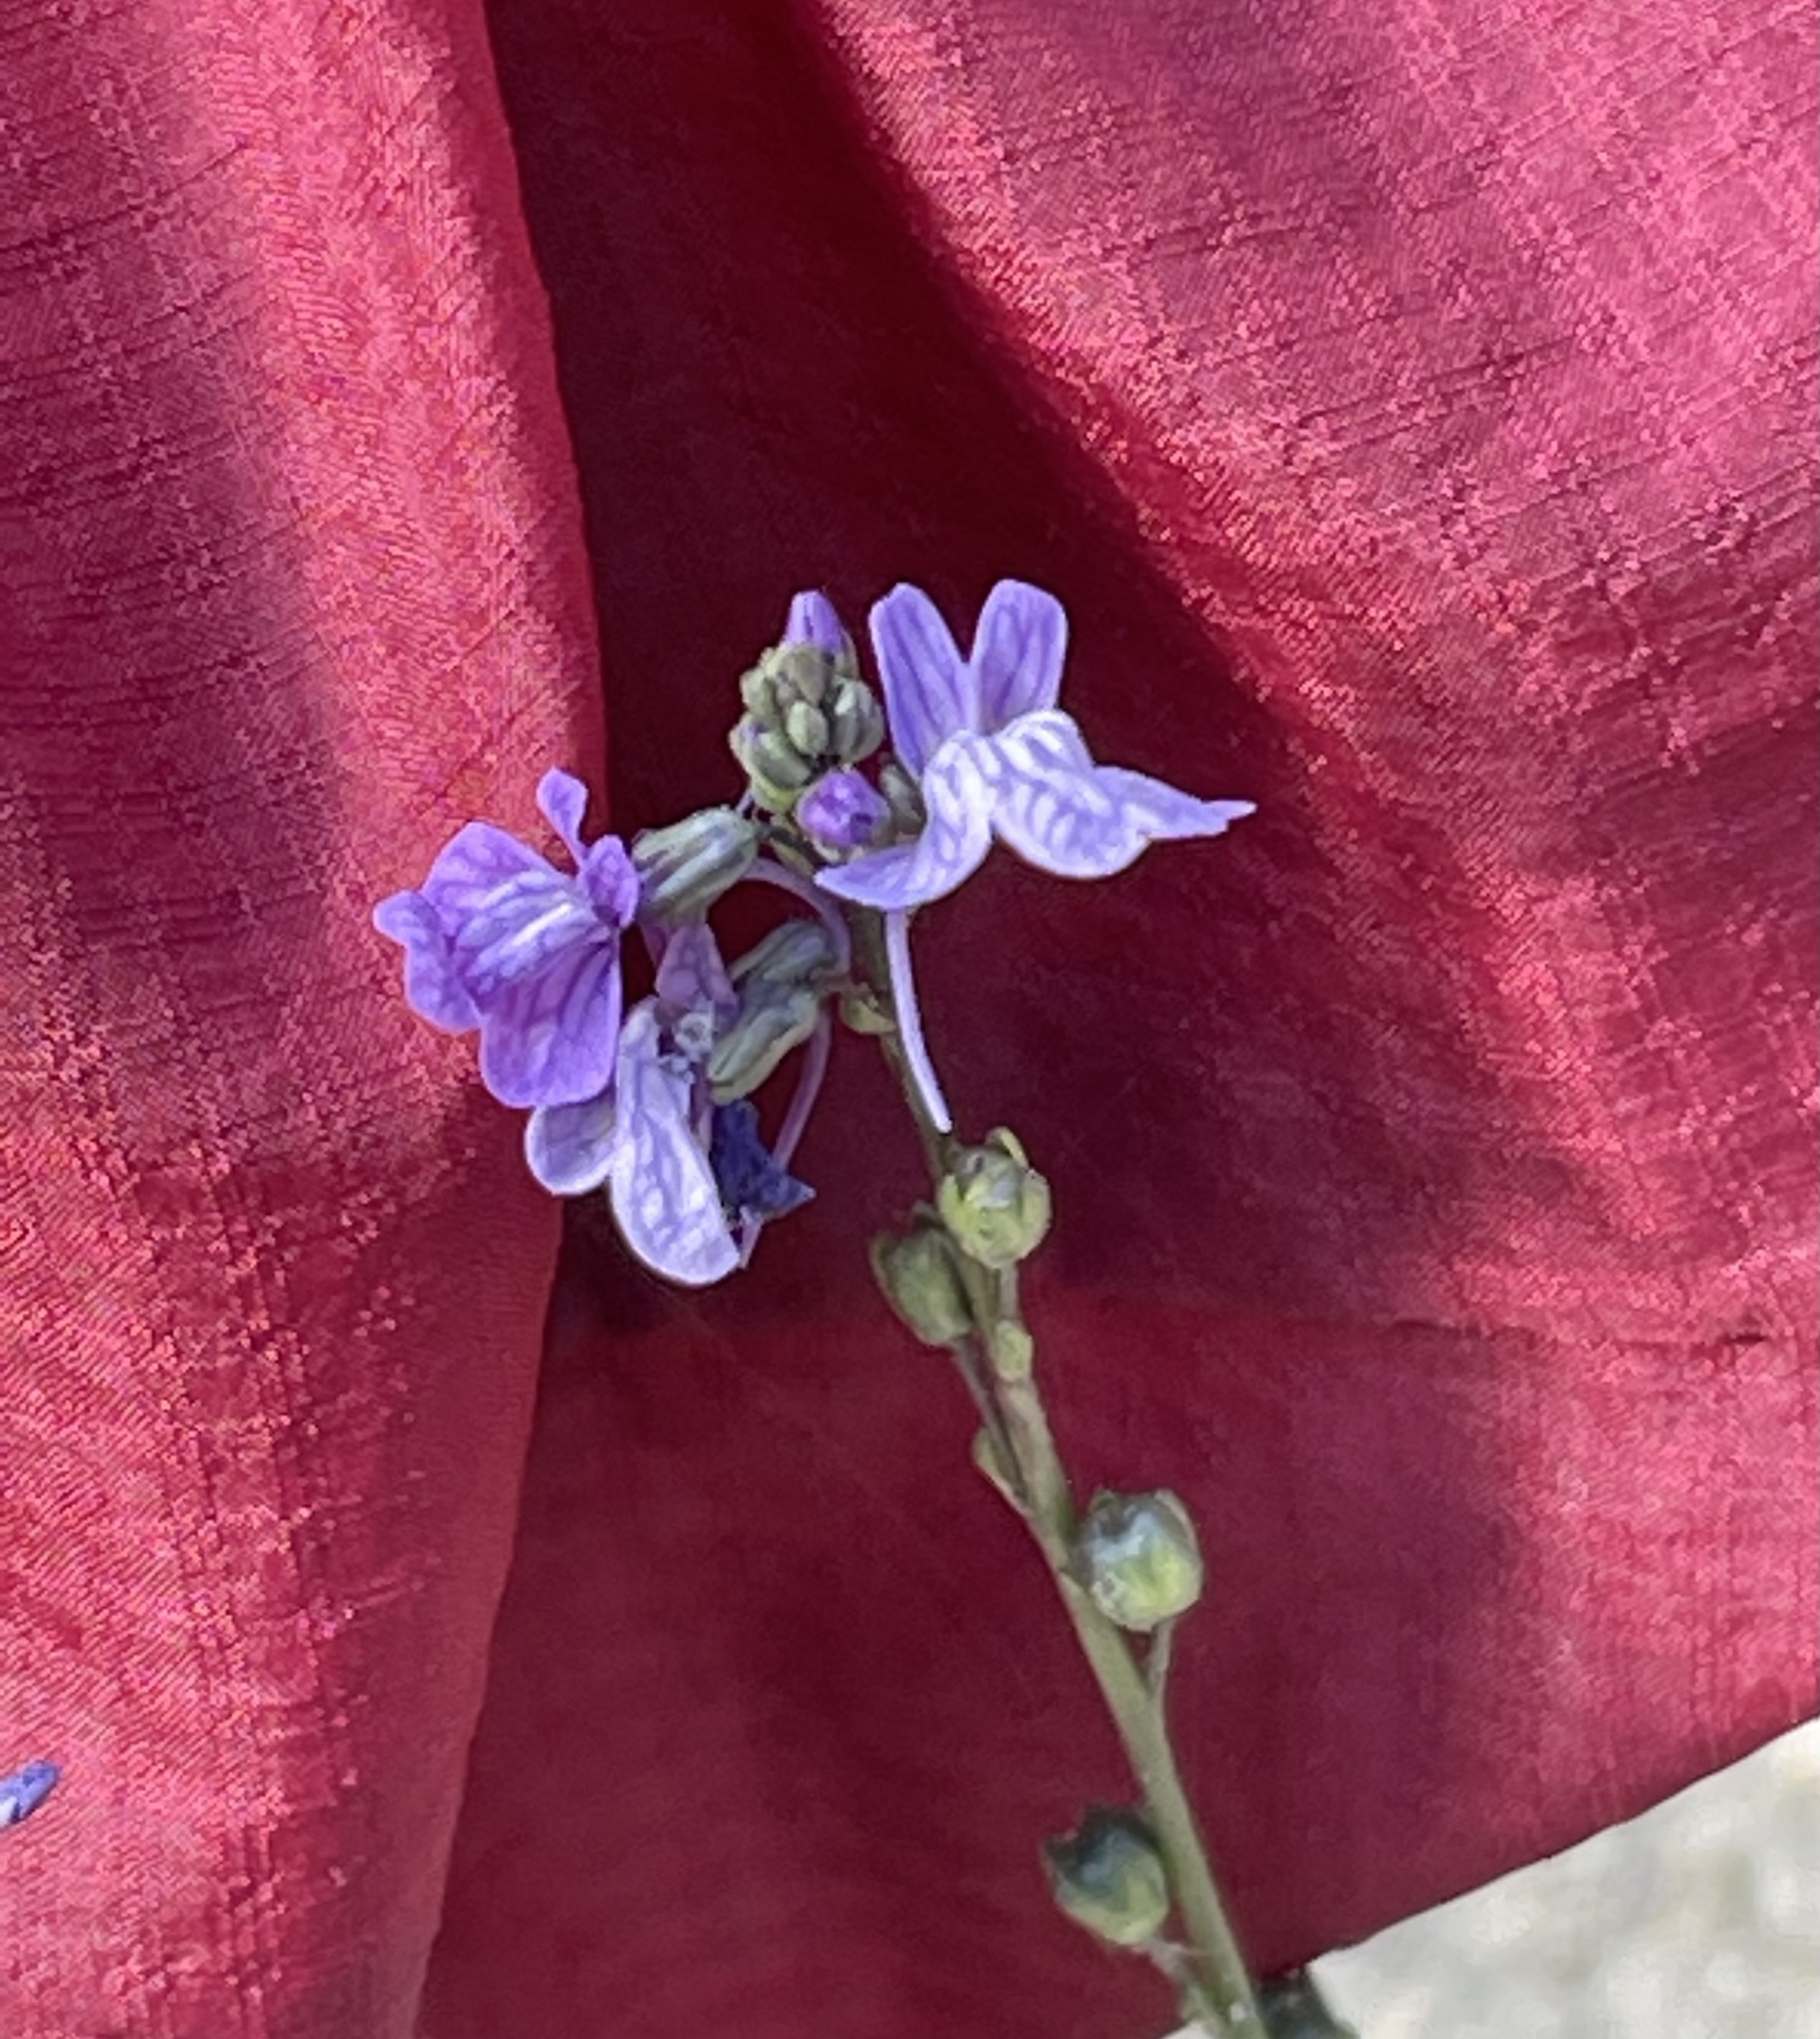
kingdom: Plantae
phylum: Tracheophyta
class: Magnoliopsida
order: Lamiales
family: Plantaginaceae
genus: Nuttallanthus
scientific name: Nuttallanthus texanus
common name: Texas toadflax
